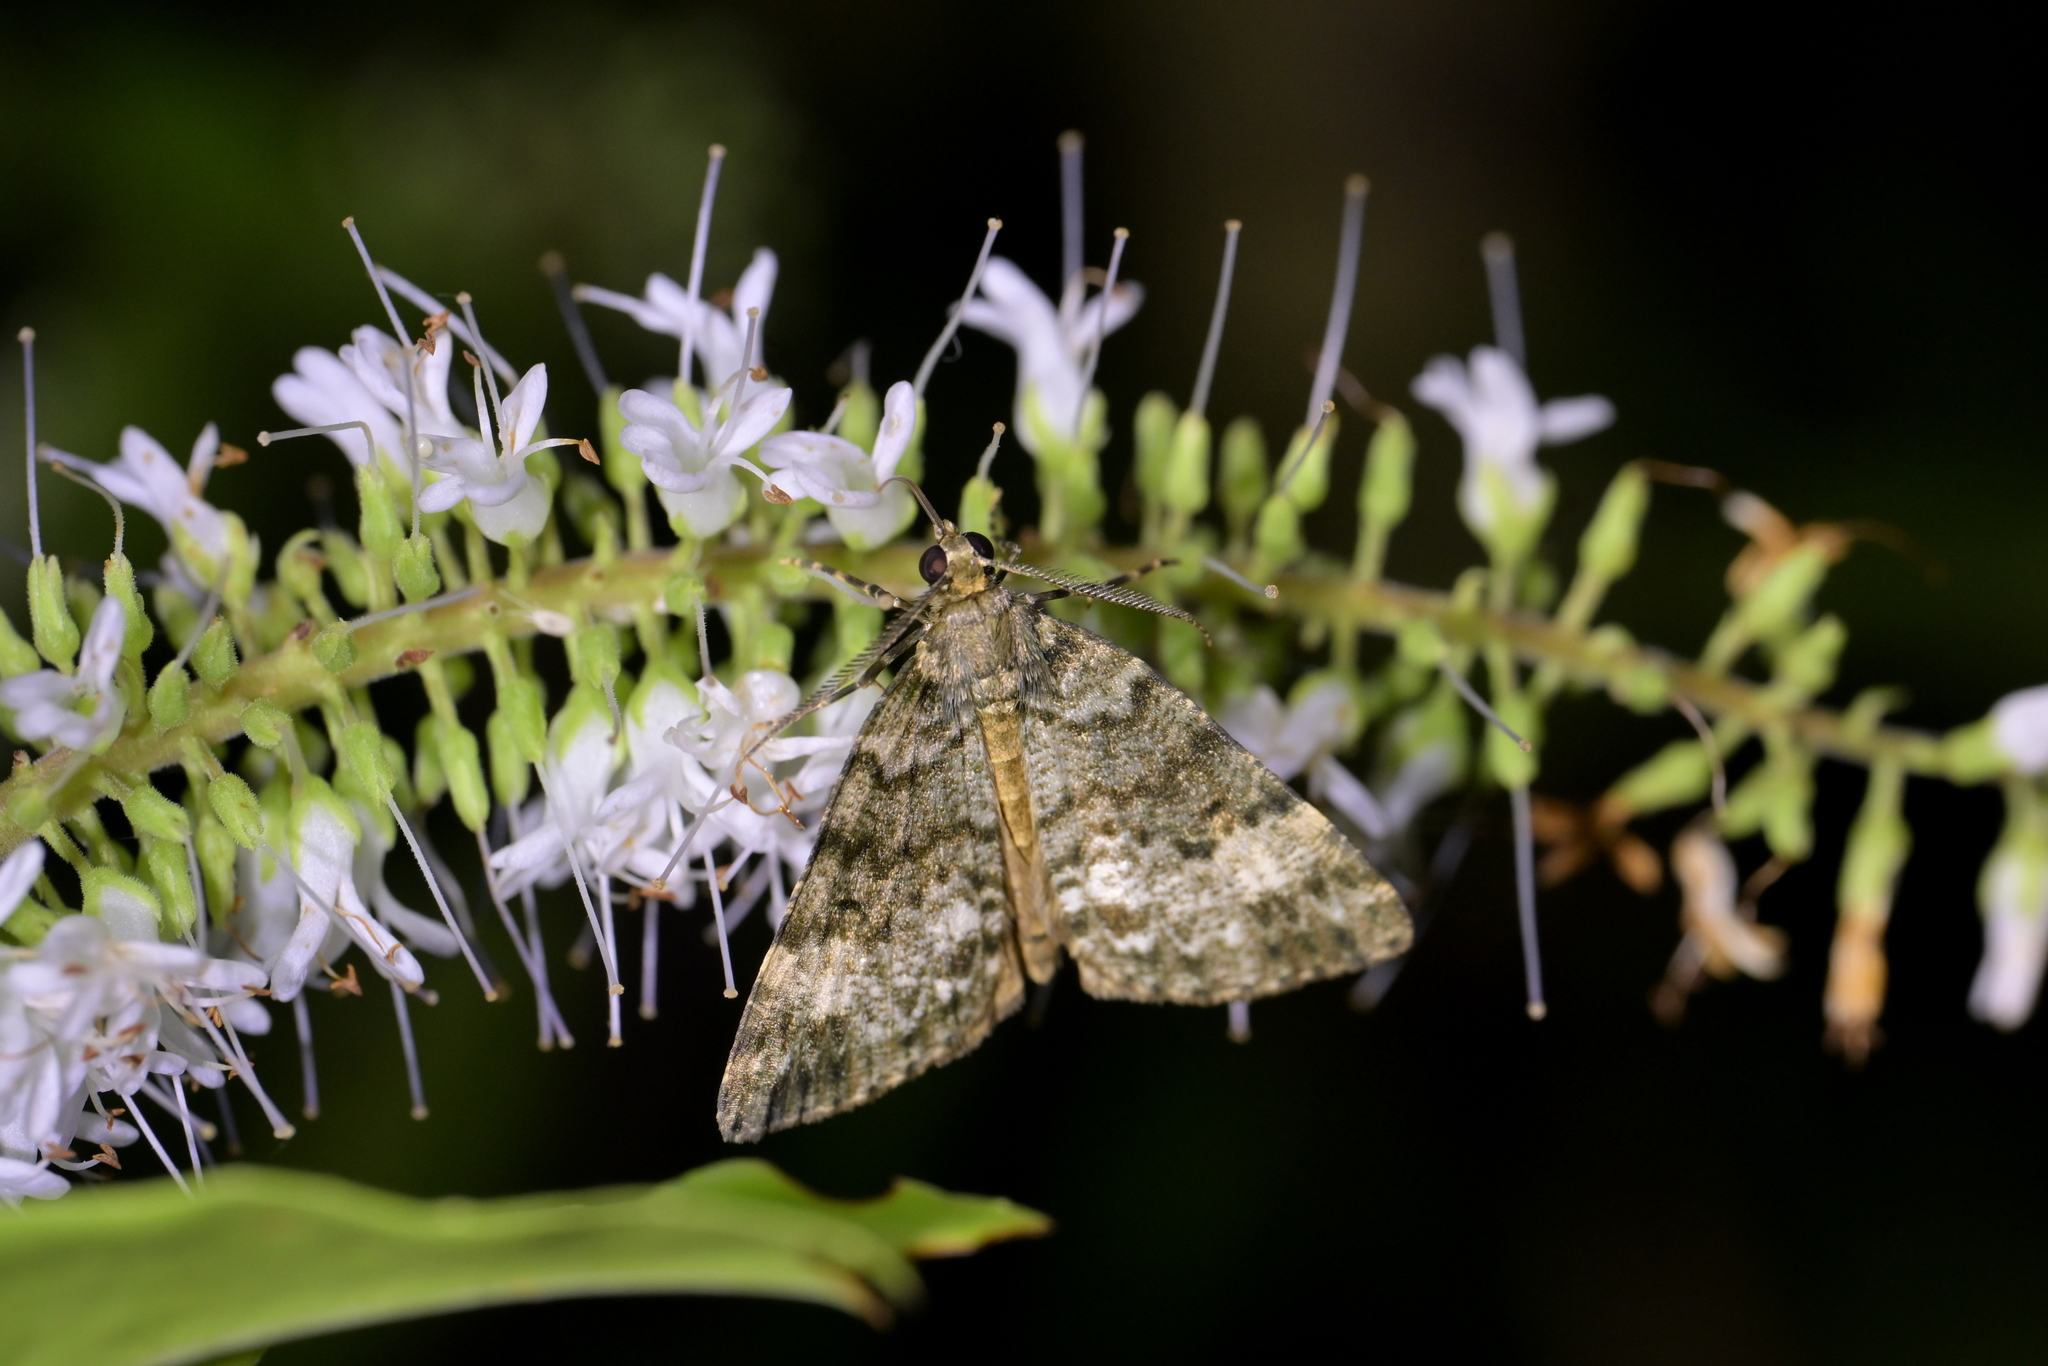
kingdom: Animalia
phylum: Arthropoda
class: Insecta
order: Lepidoptera
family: Geometridae
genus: Pseudocoremia
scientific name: Pseudocoremia indistincta
